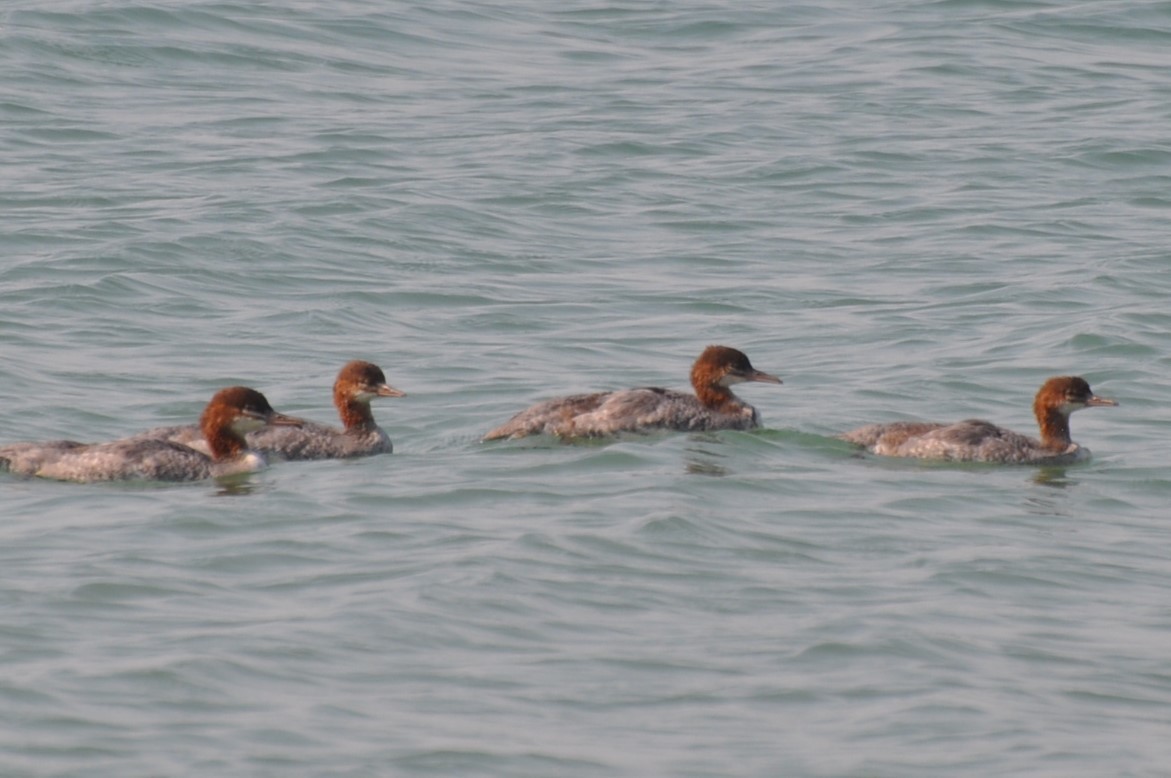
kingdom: Animalia
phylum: Chordata
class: Aves
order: Anseriformes
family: Anatidae
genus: Mergus
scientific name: Mergus merganser
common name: Common merganser
